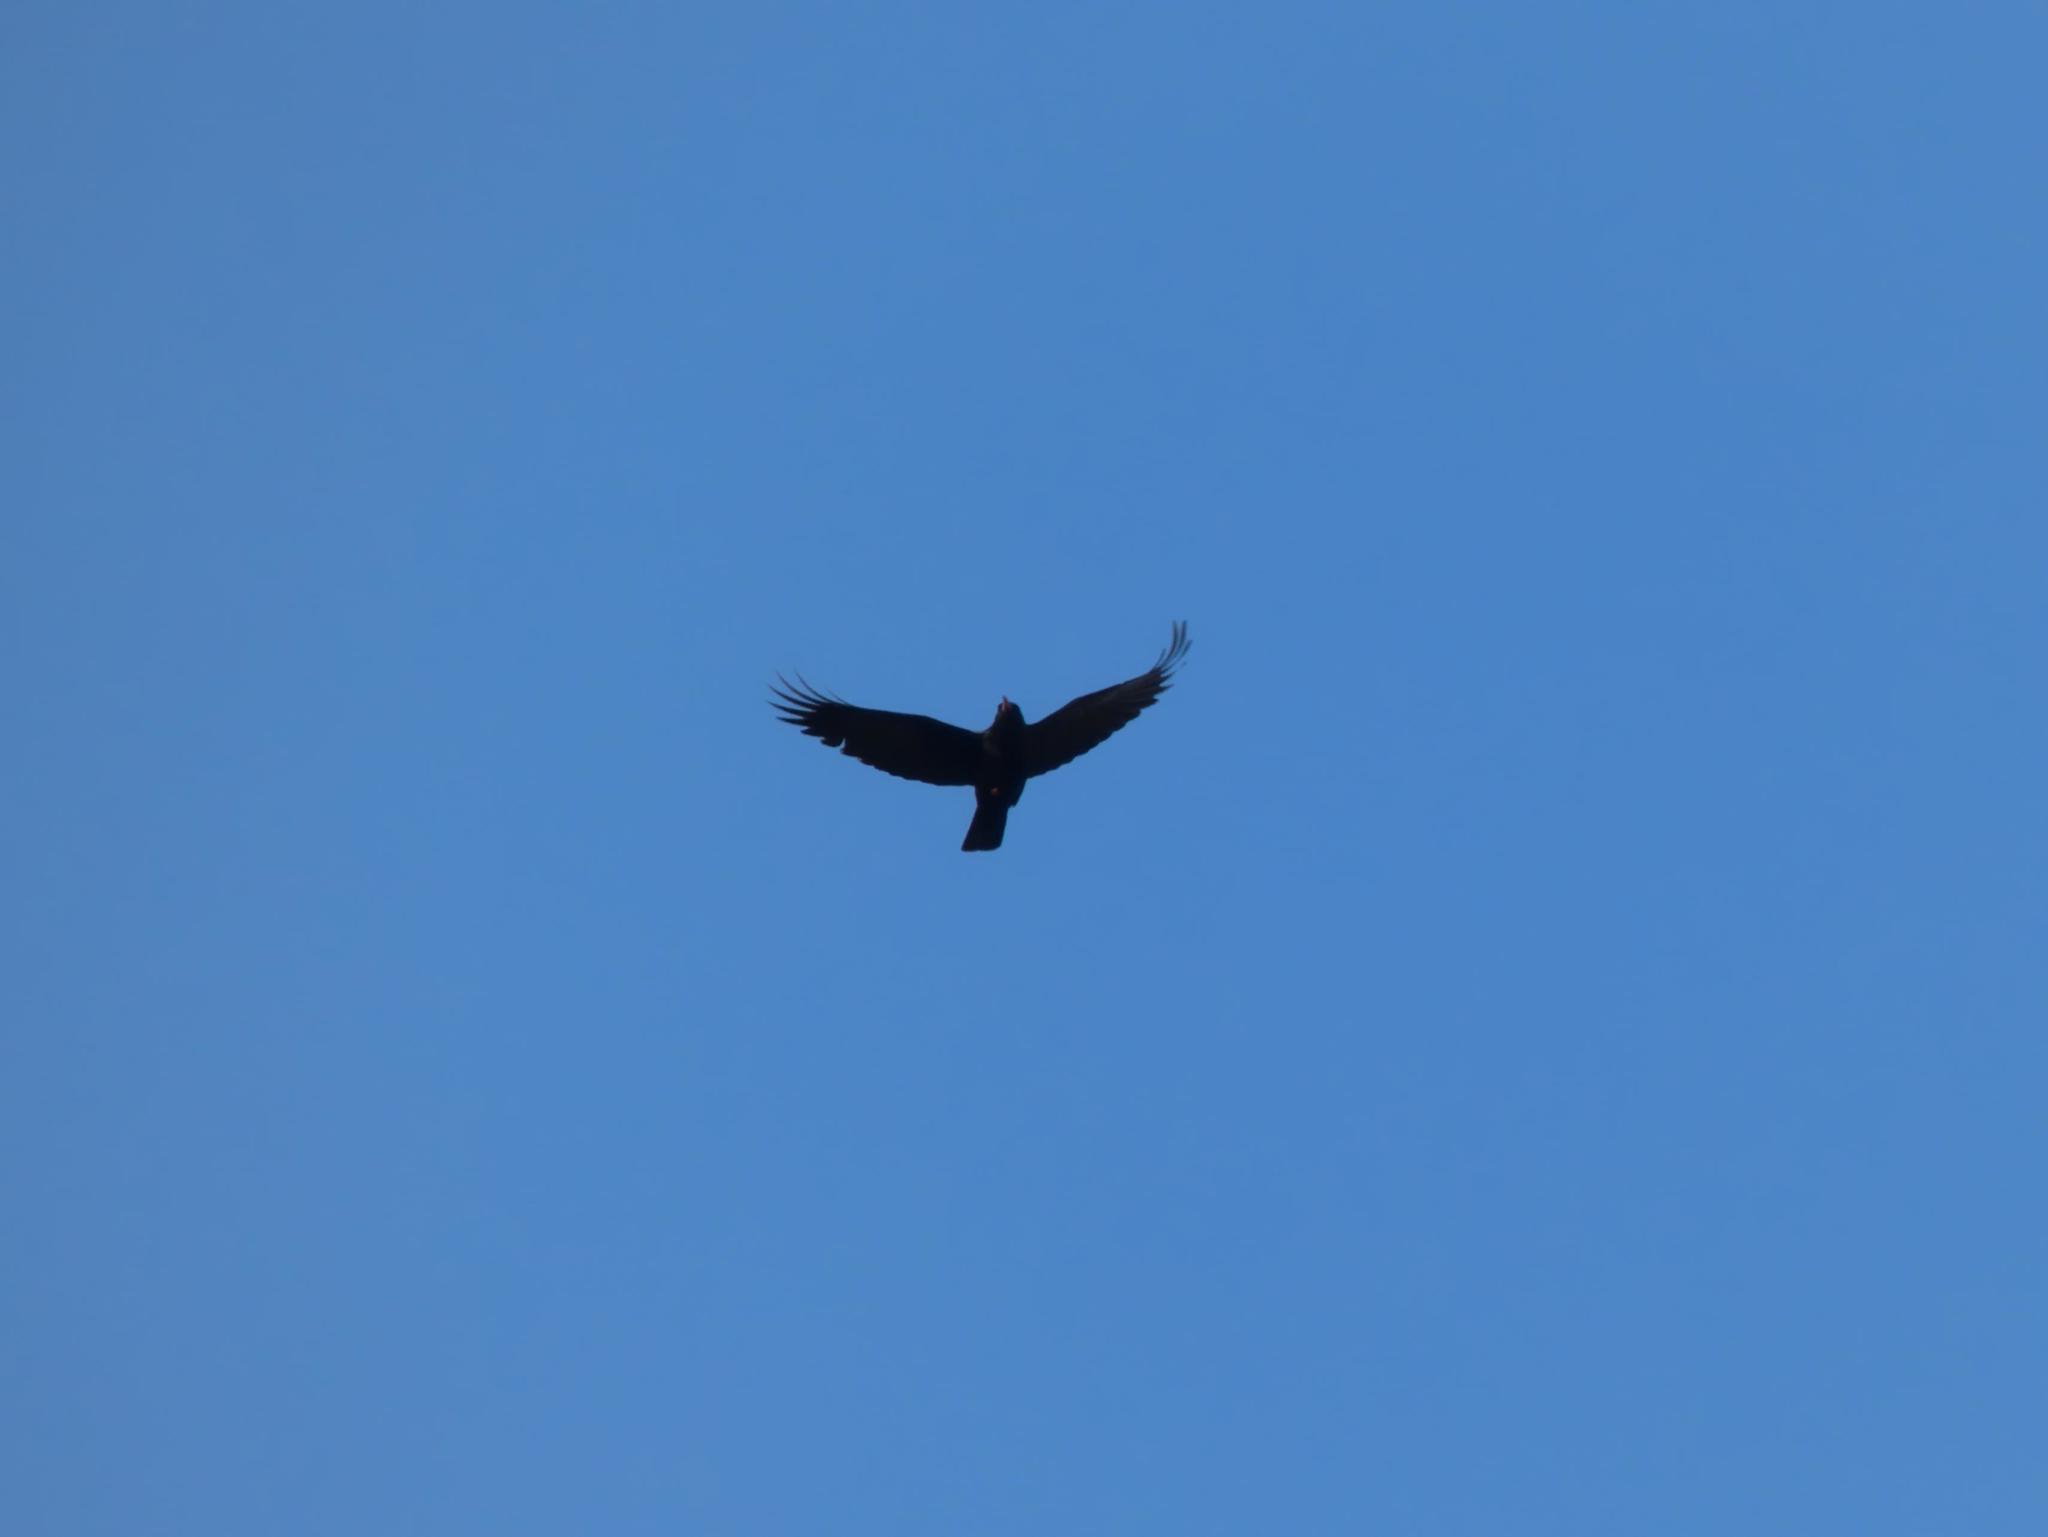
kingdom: Animalia
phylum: Chordata
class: Aves
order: Passeriformes
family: Corvidae
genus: Pyrrhocorax
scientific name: Pyrrhocorax pyrrhocorax
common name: Red-billed chough
